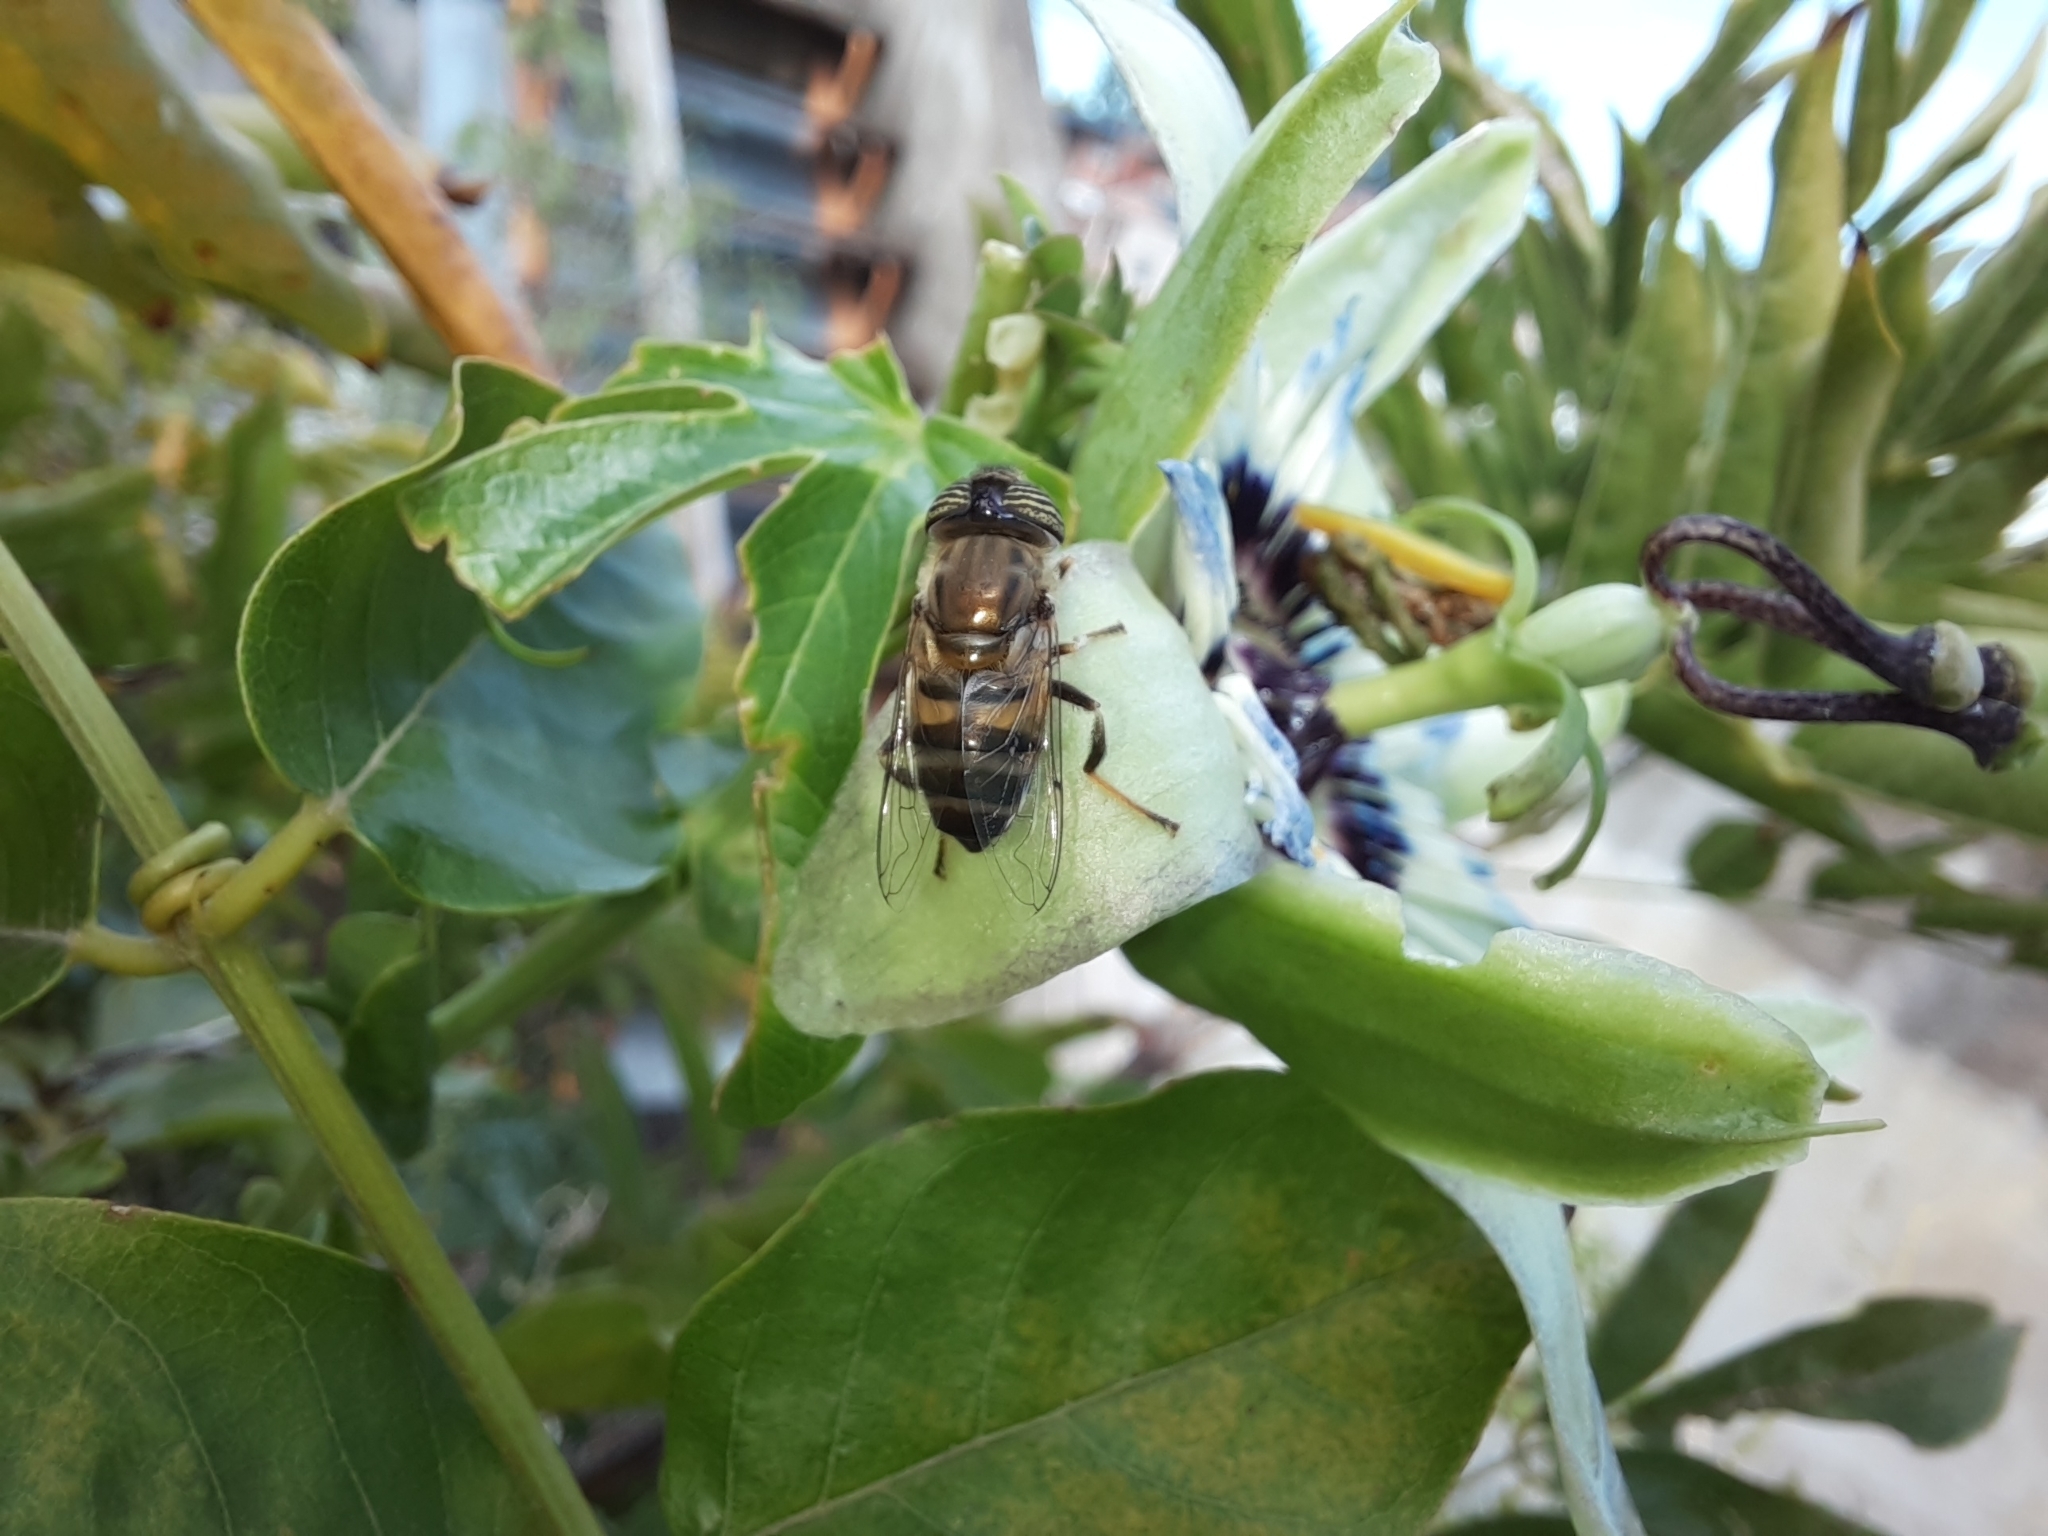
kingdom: Animalia
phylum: Arthropoda
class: Insecta
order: Diptera
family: Syrphidae
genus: Eristalinus
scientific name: Eristalinus taeniops
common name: Syrphid fly
